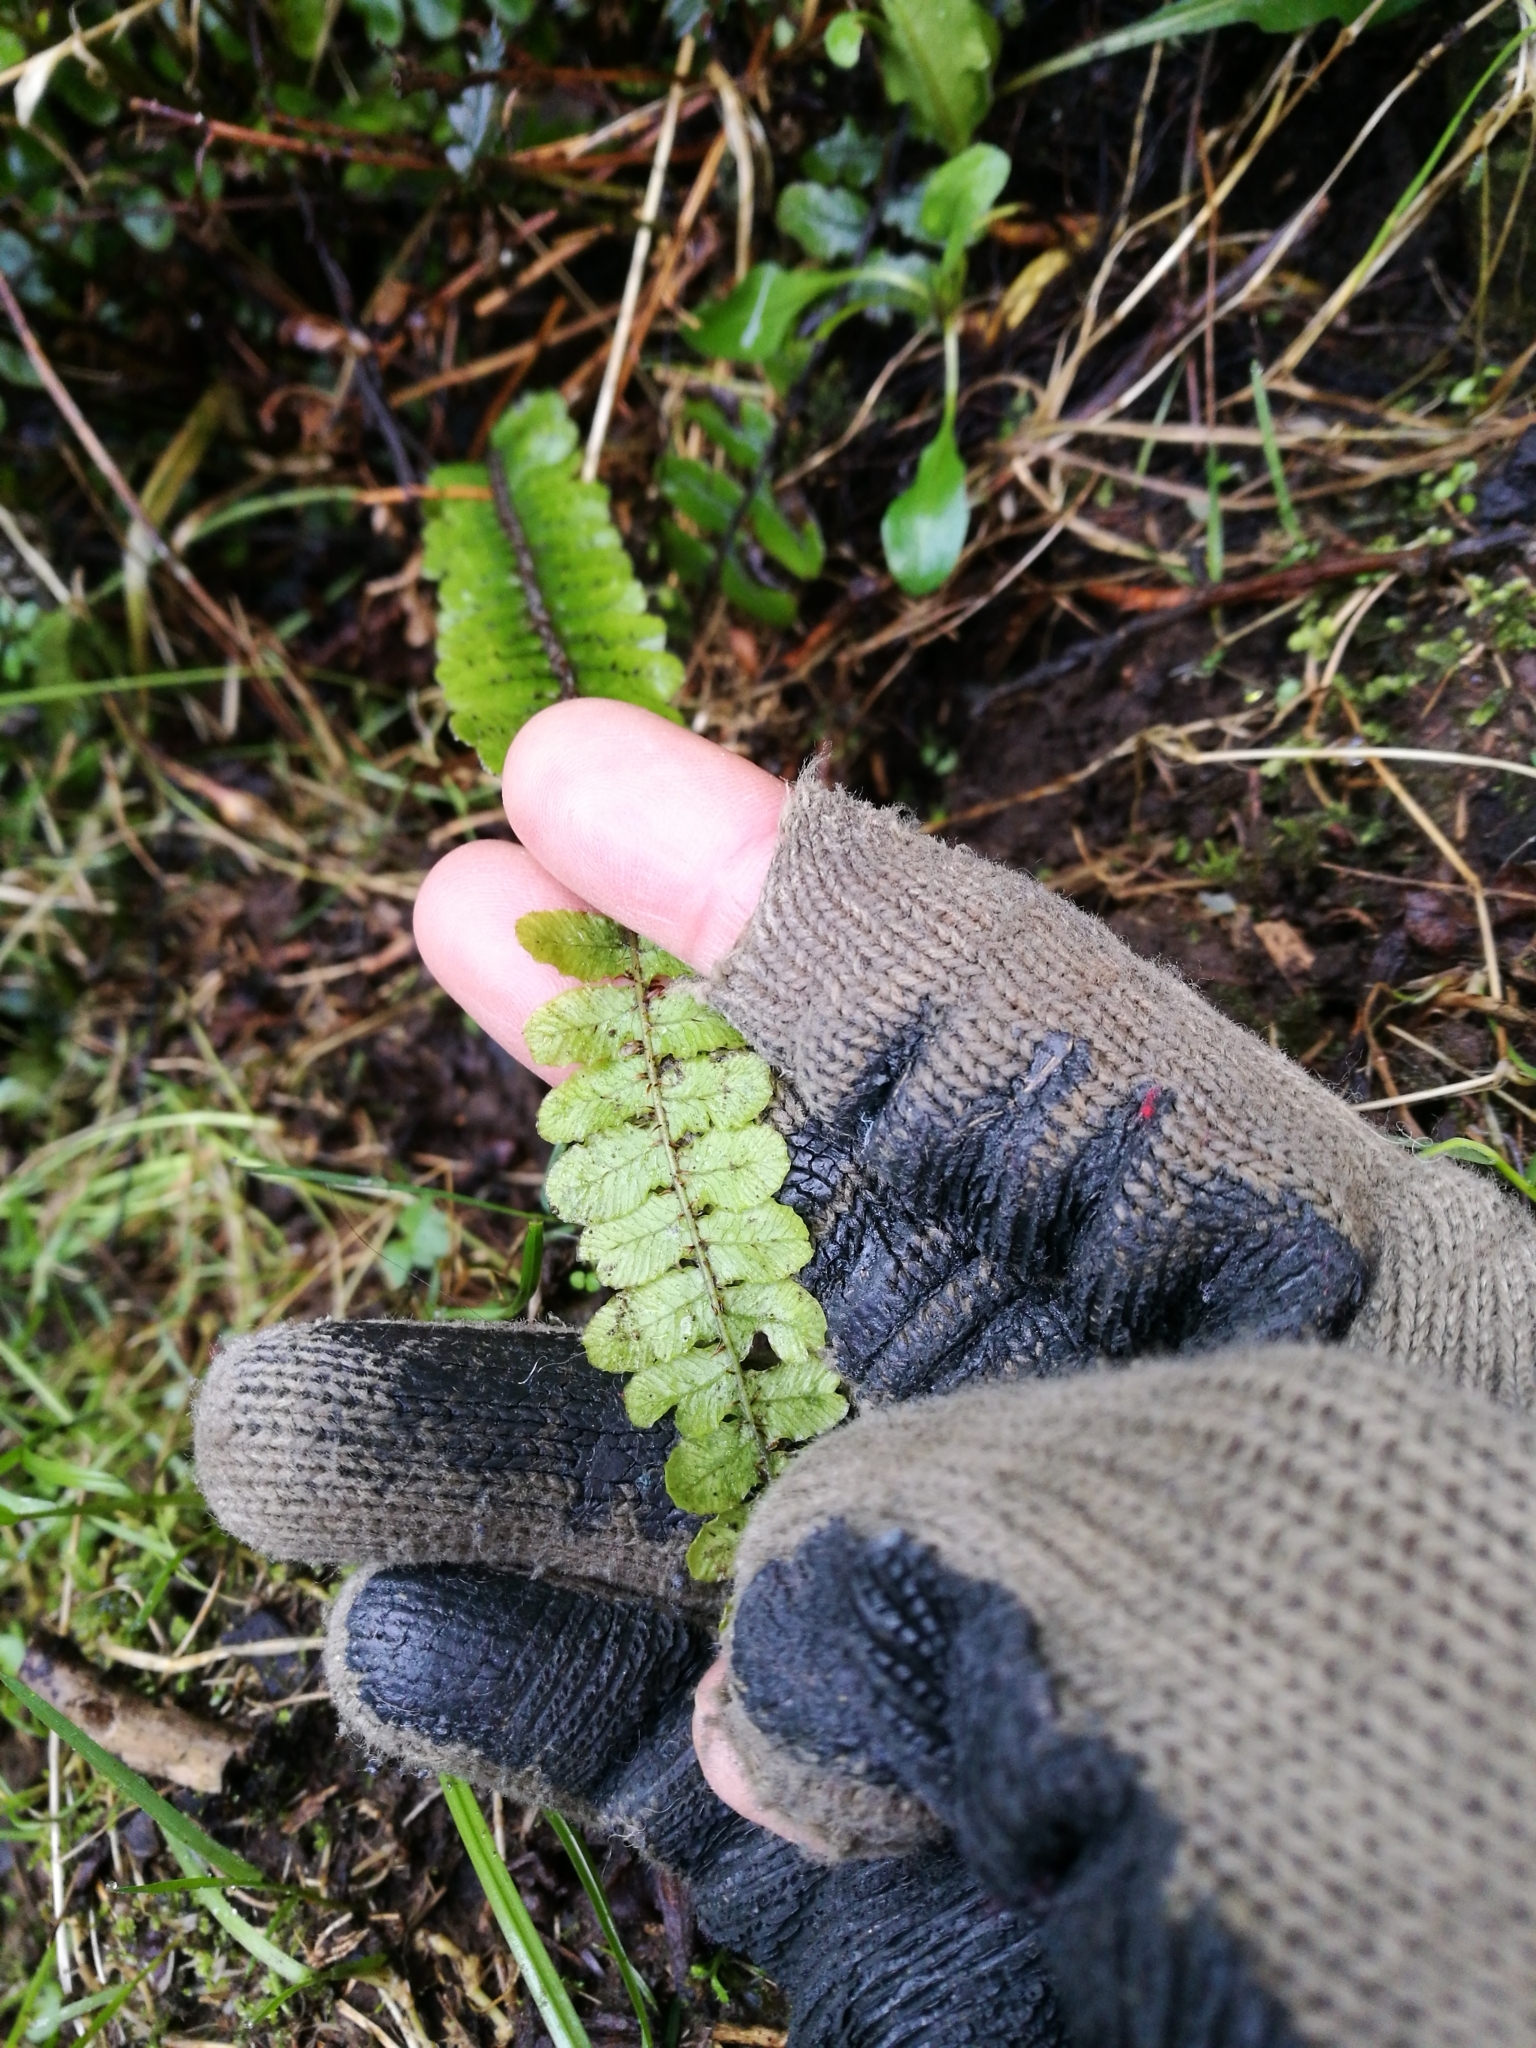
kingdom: Plantae
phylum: Tracheophyta
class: Polypodiopsida
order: Polypodiales
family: Thelypteridaceae
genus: Pakau
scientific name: Pakau pennigera
